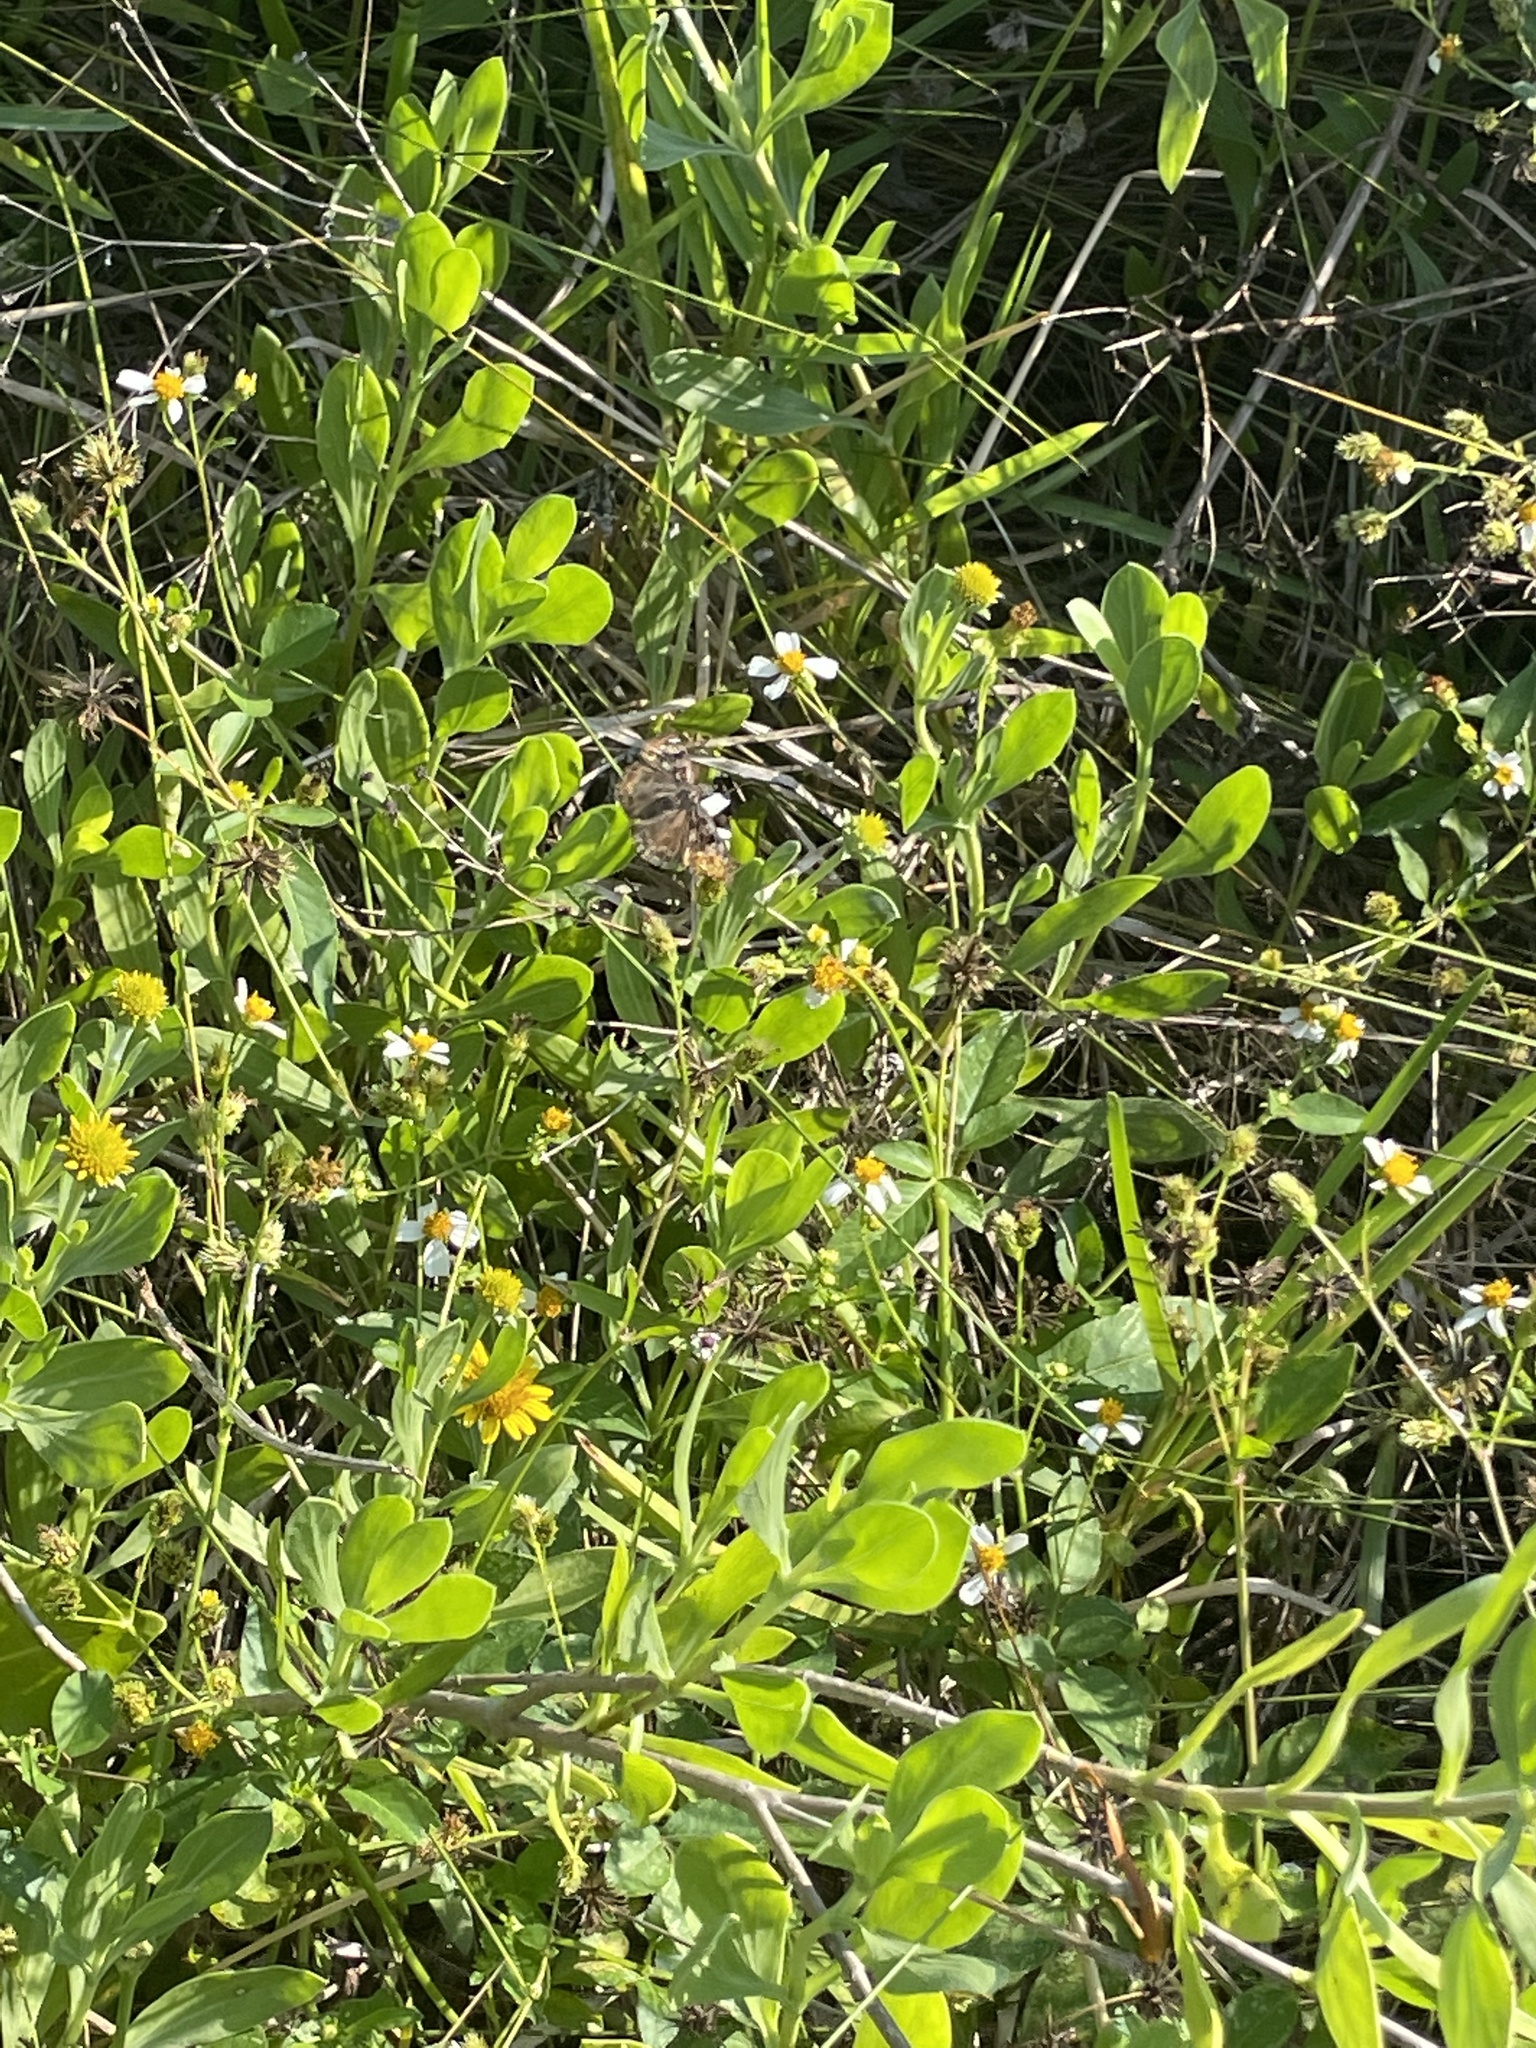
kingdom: Plantae
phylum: Tracheophyta
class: Magnoliopsida
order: Asterales
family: Asteraceae
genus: Bidens
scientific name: Bidens alba
